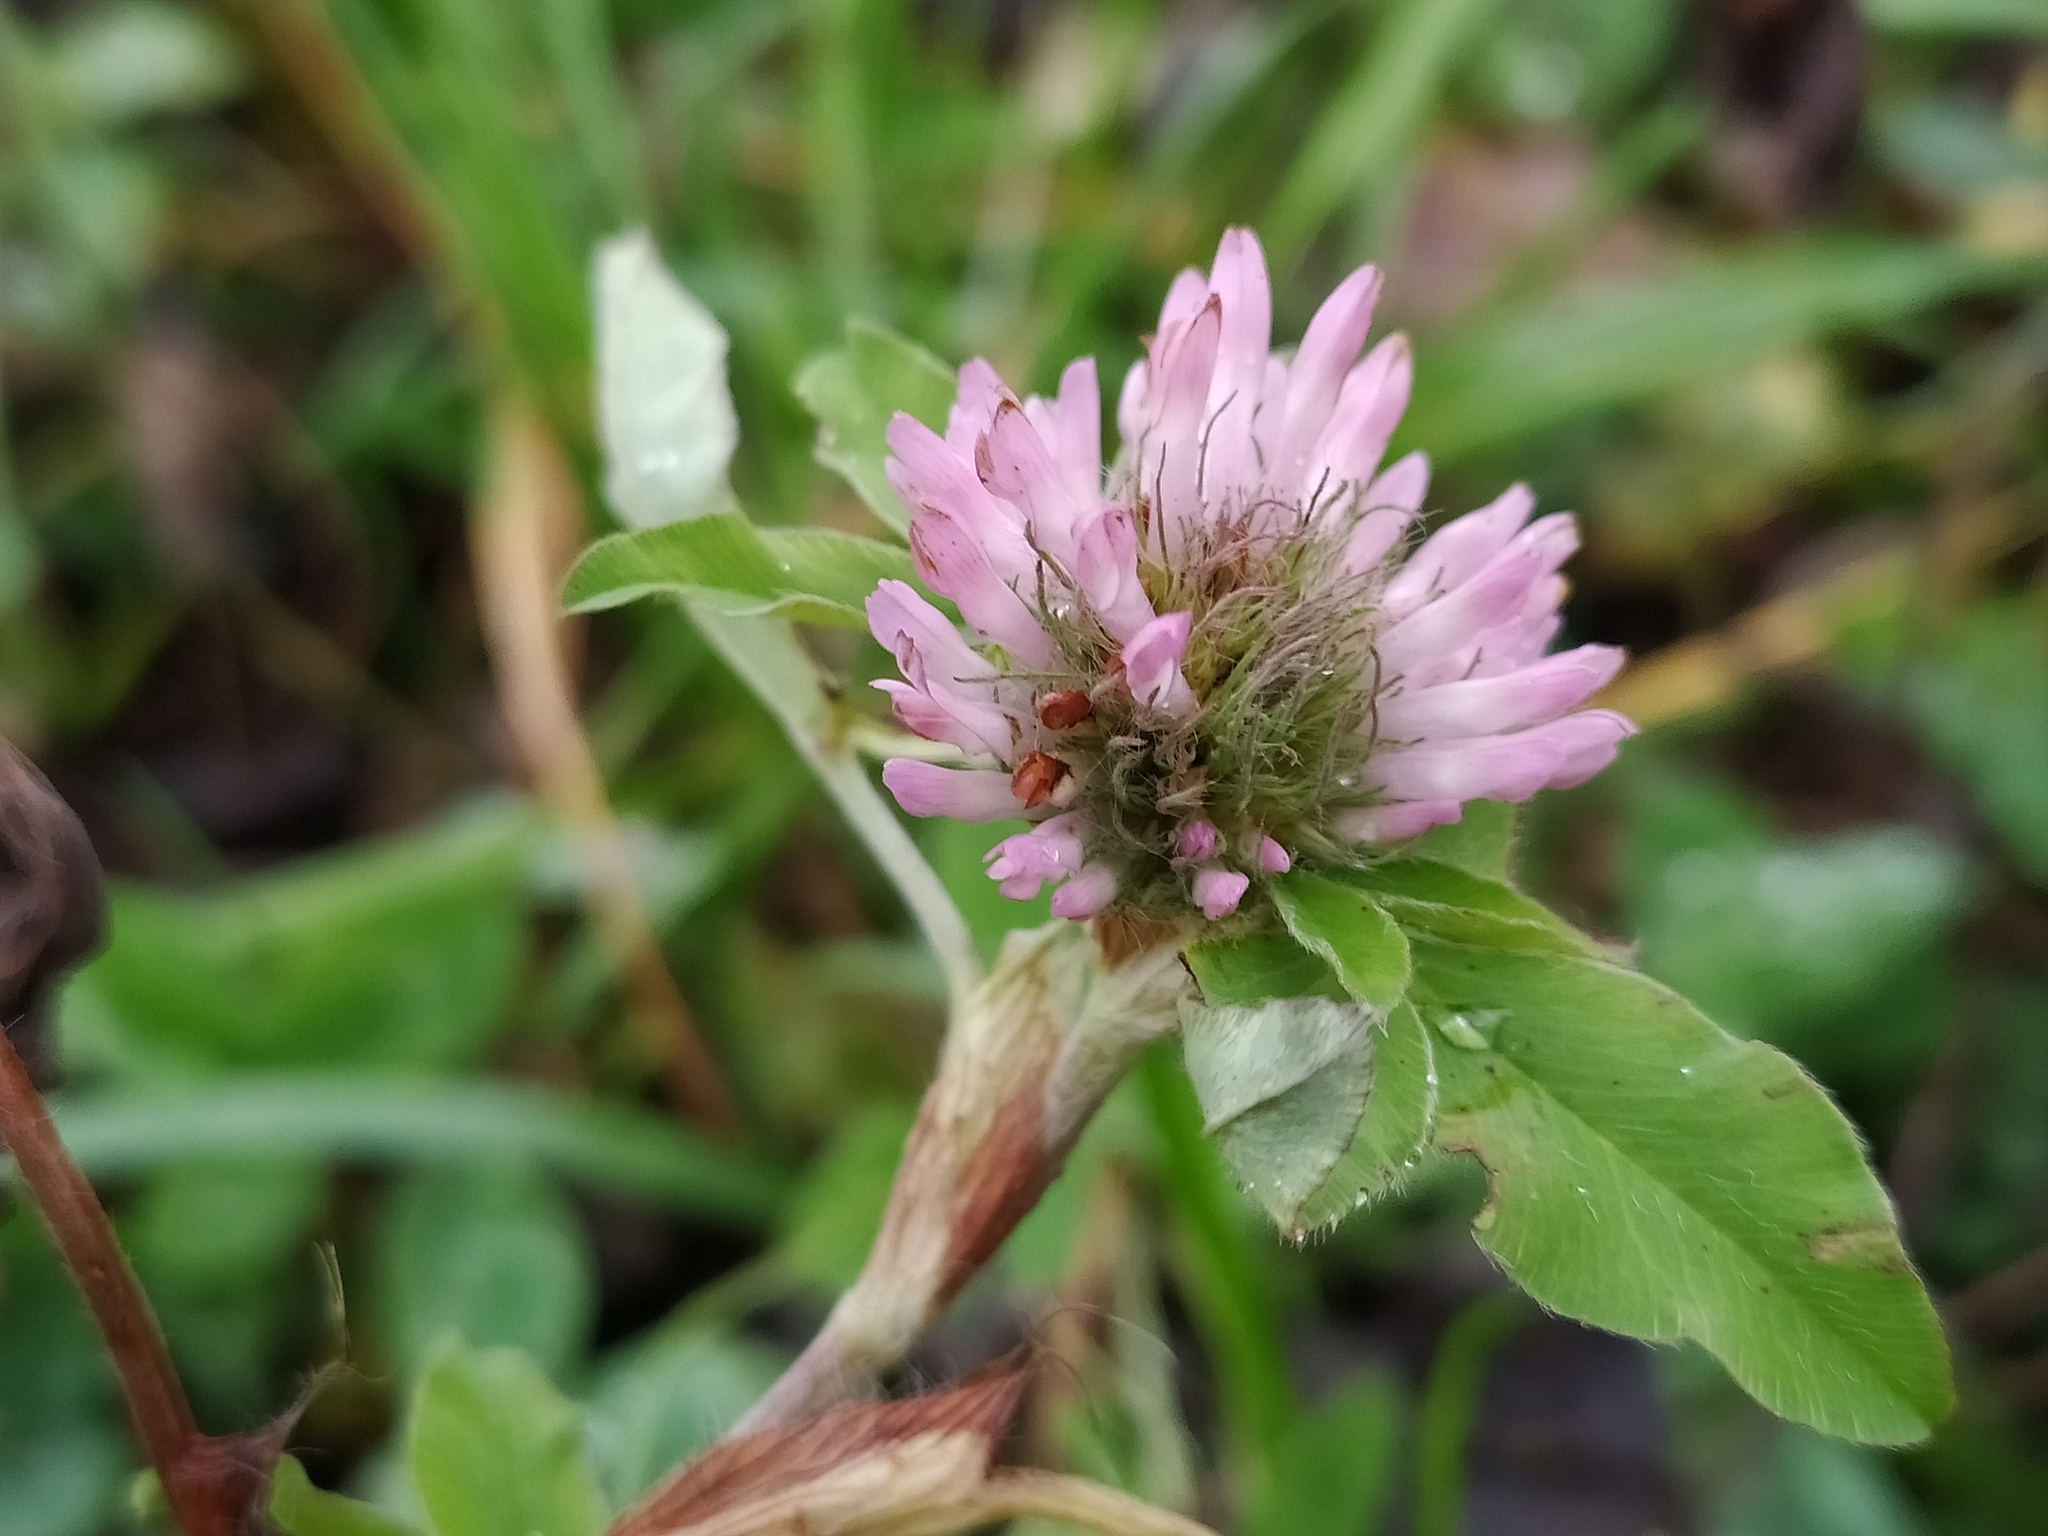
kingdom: Plantae
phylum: Tracheophyta
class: Magnoliopsida
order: Fabales
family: Fabaceae
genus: Trifolium
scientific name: Trifolium pratense
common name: Red clover
